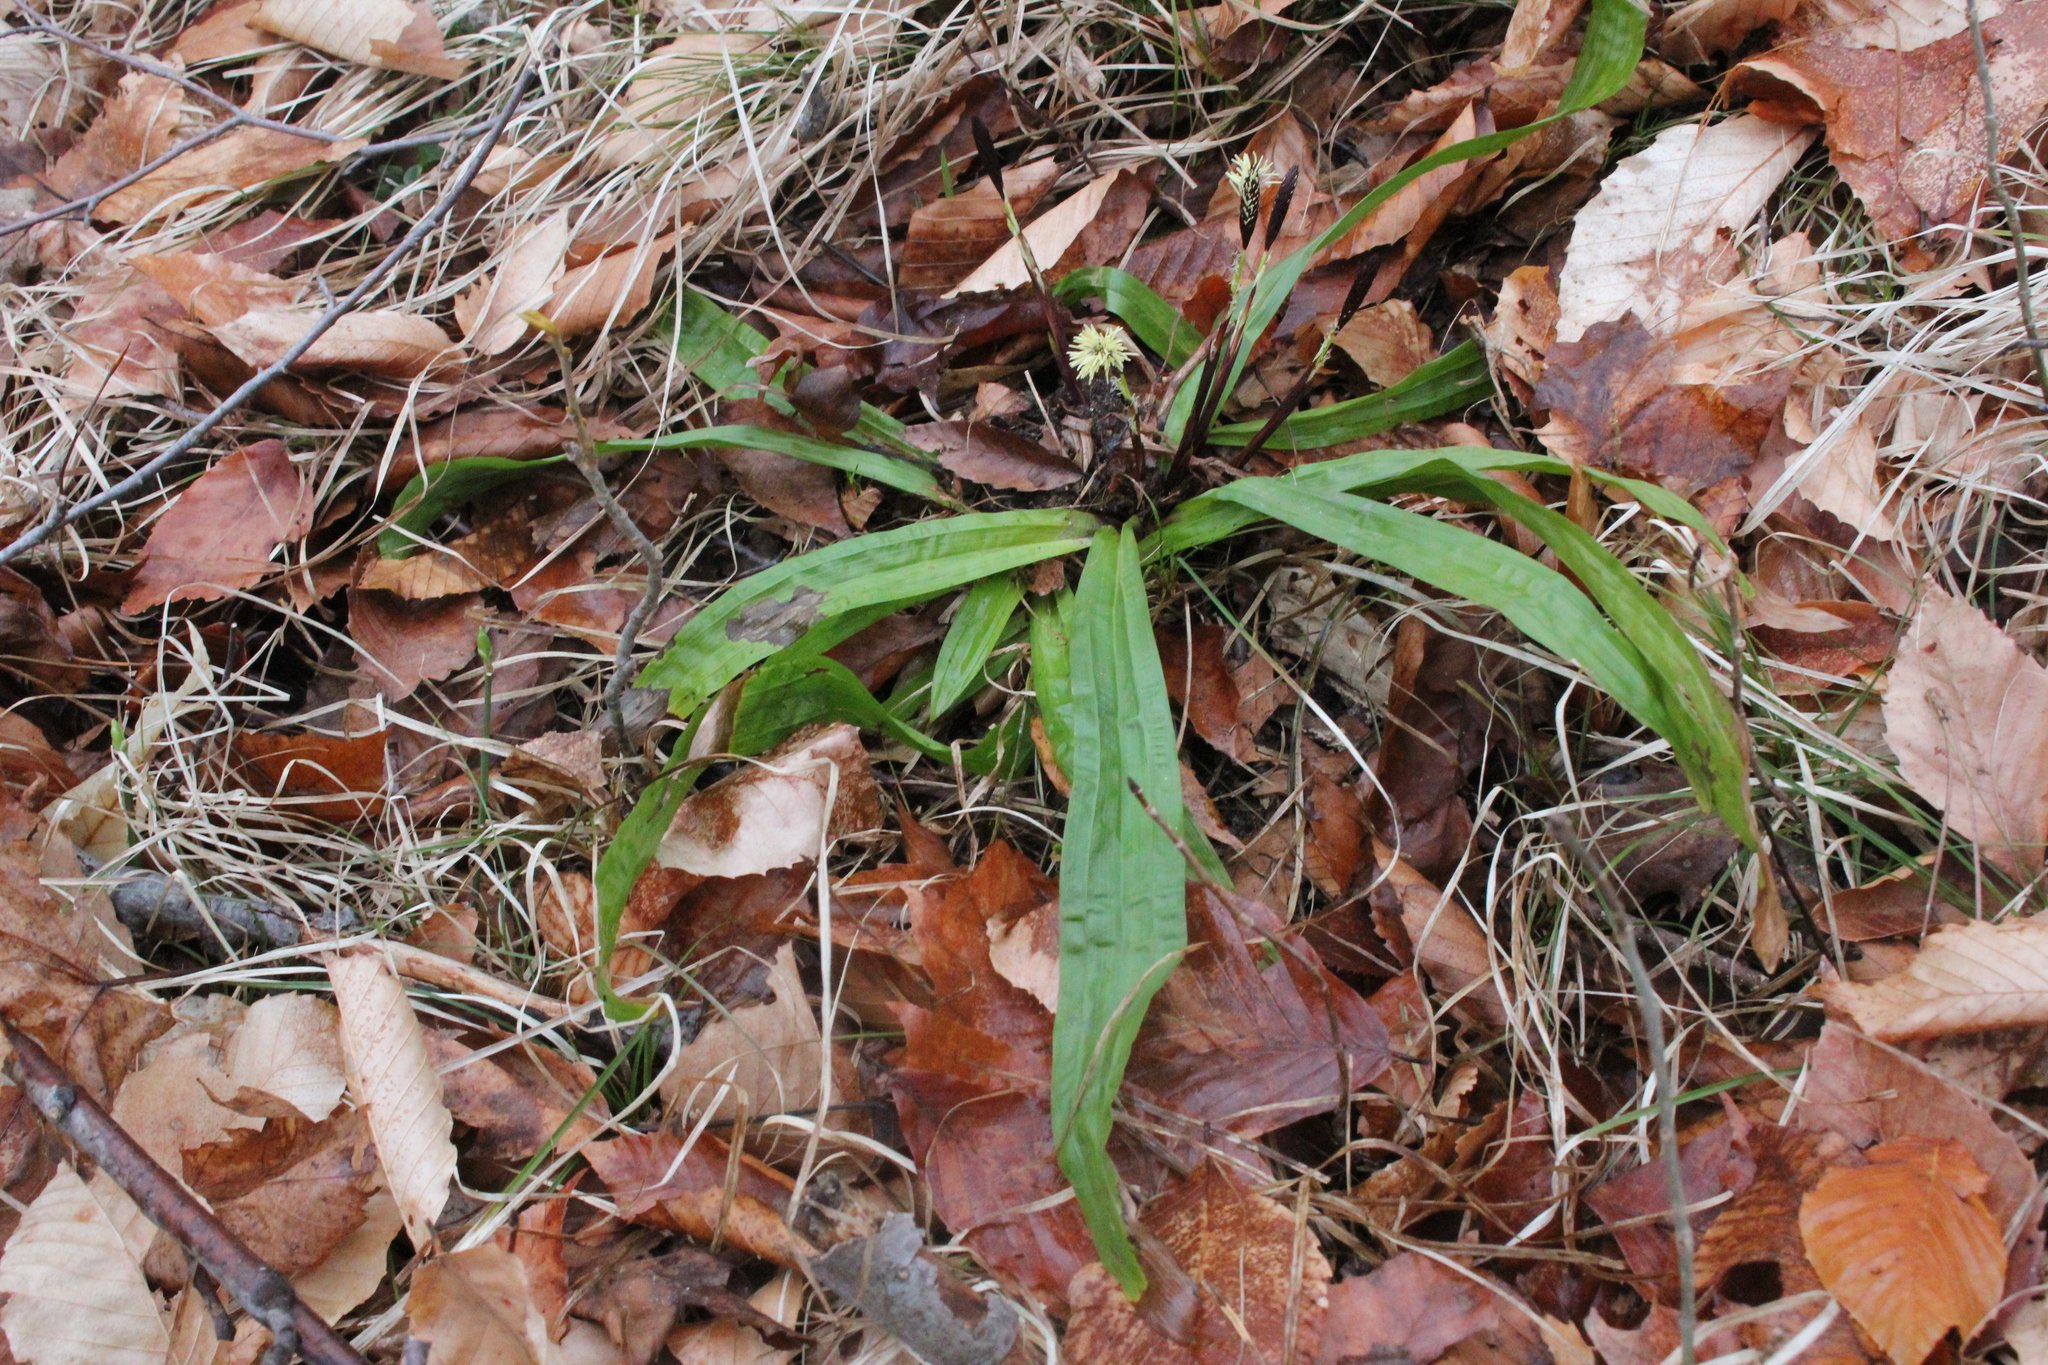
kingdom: Plantae
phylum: Tracheophyta
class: Liliopsida
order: Poales
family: Cyperaceae
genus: Carex
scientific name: Carex plantaginea
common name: Plantain-leaved sedge
